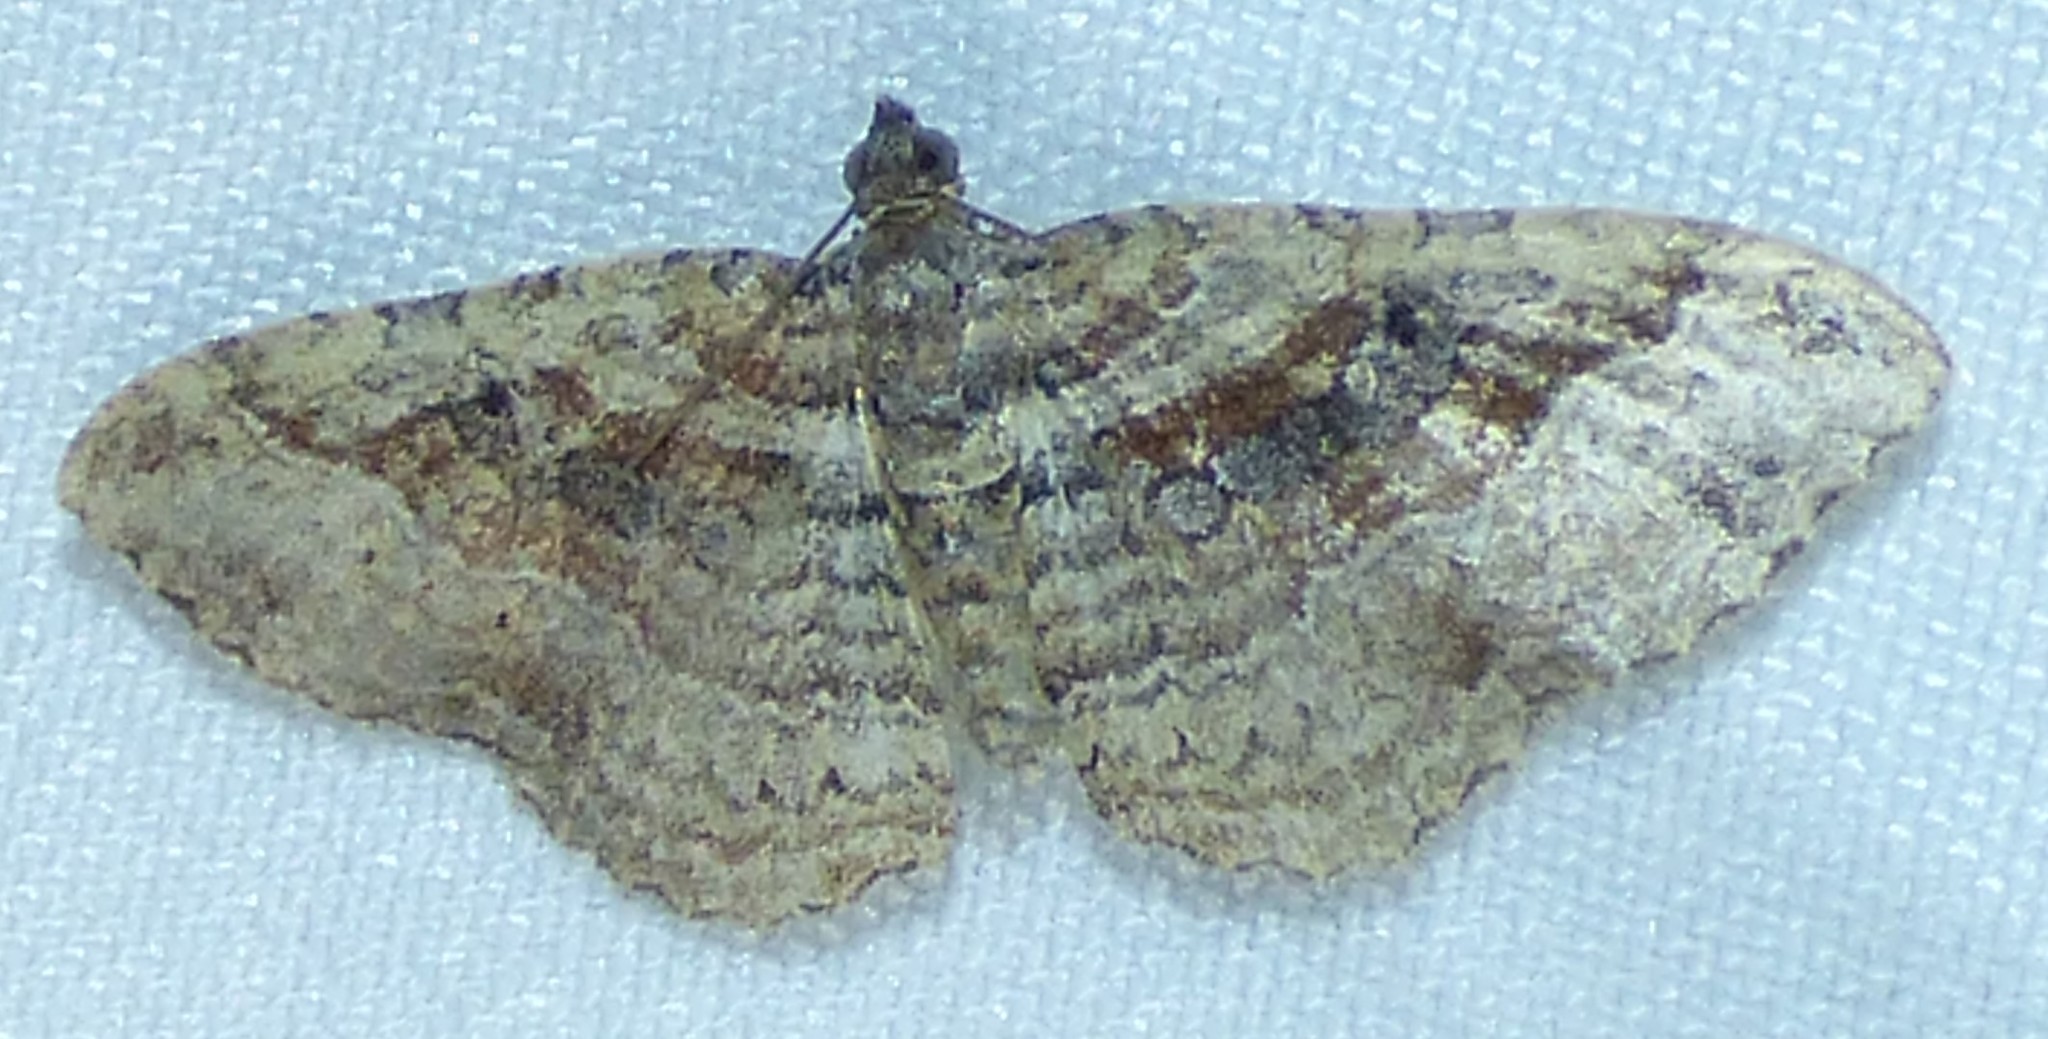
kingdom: Animalia
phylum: Arthropoda
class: Insecta
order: Lepidoptera
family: Geometridae
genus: Costaconvexa
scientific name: Costaconvexa centrostrigaria
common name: Bent-line carpet
